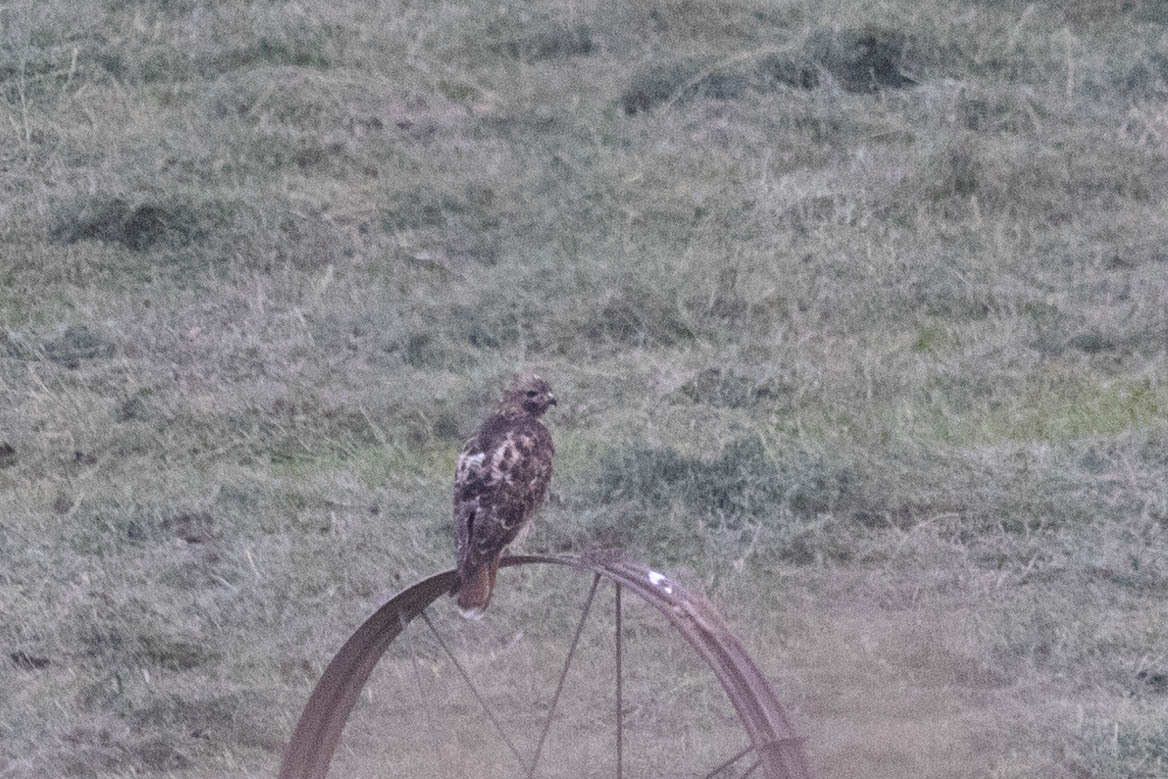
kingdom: Animalia
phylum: Chordata
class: Aves
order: Accipitriformes
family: Accipitridae
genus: Buteo
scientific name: Buteo jamaicensis
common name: Red-tailed hawk
